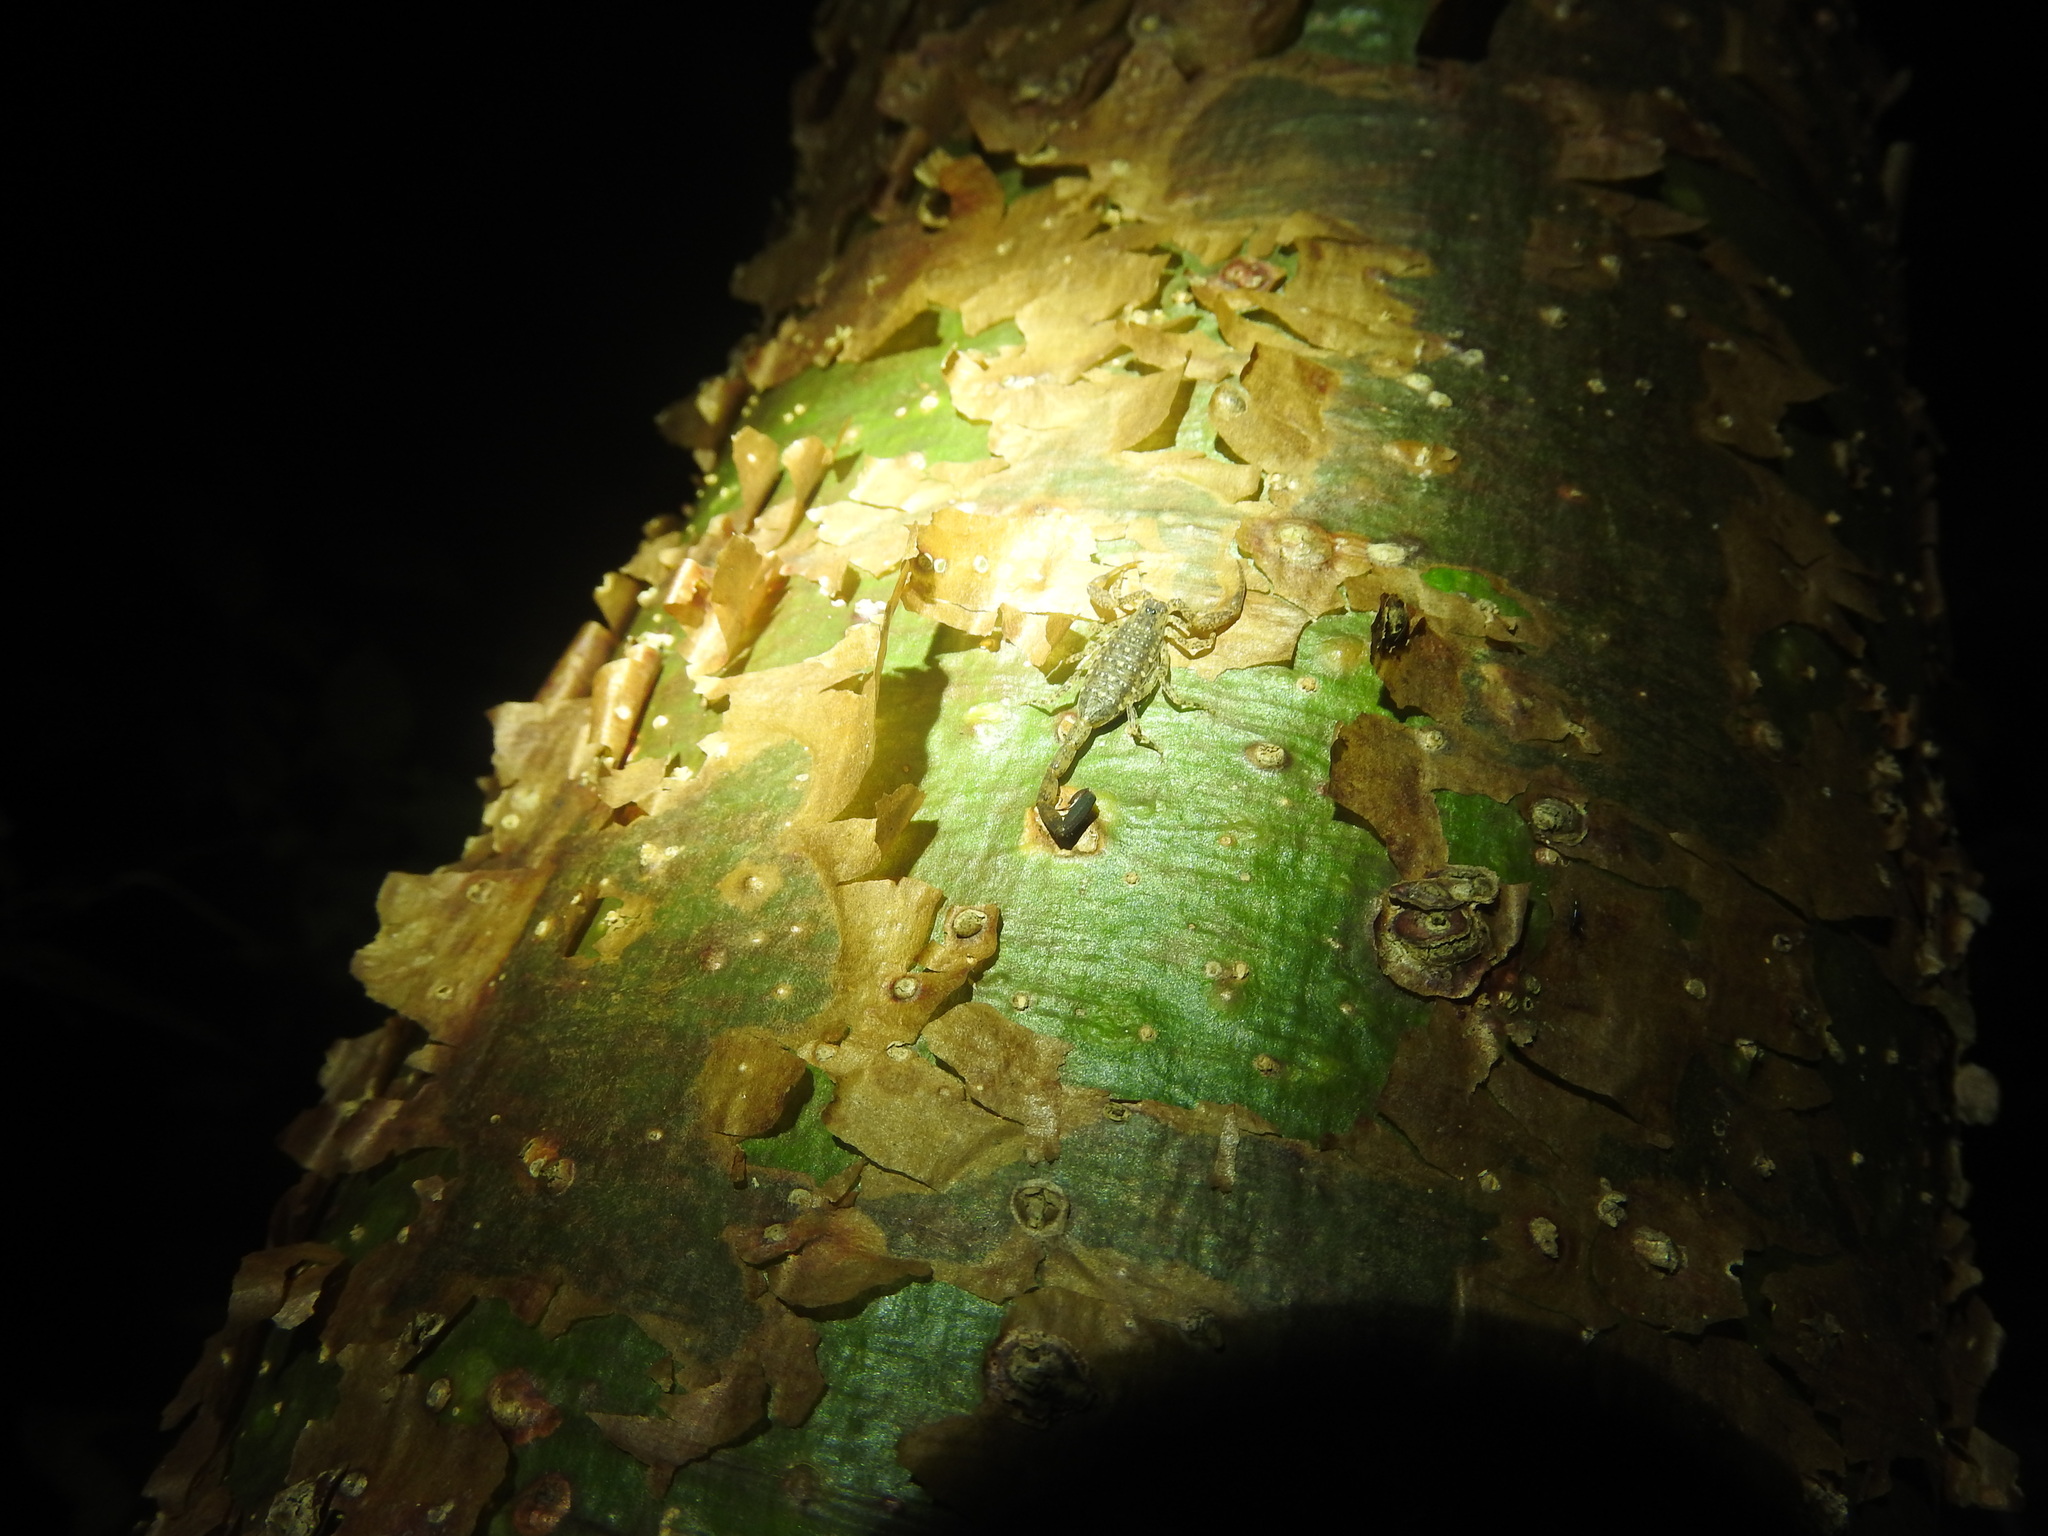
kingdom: Animalia
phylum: Arthropoda
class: Arachnida
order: Scorpiones
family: Buthidae
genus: Centruroides
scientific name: Centruroides yucatanensis
